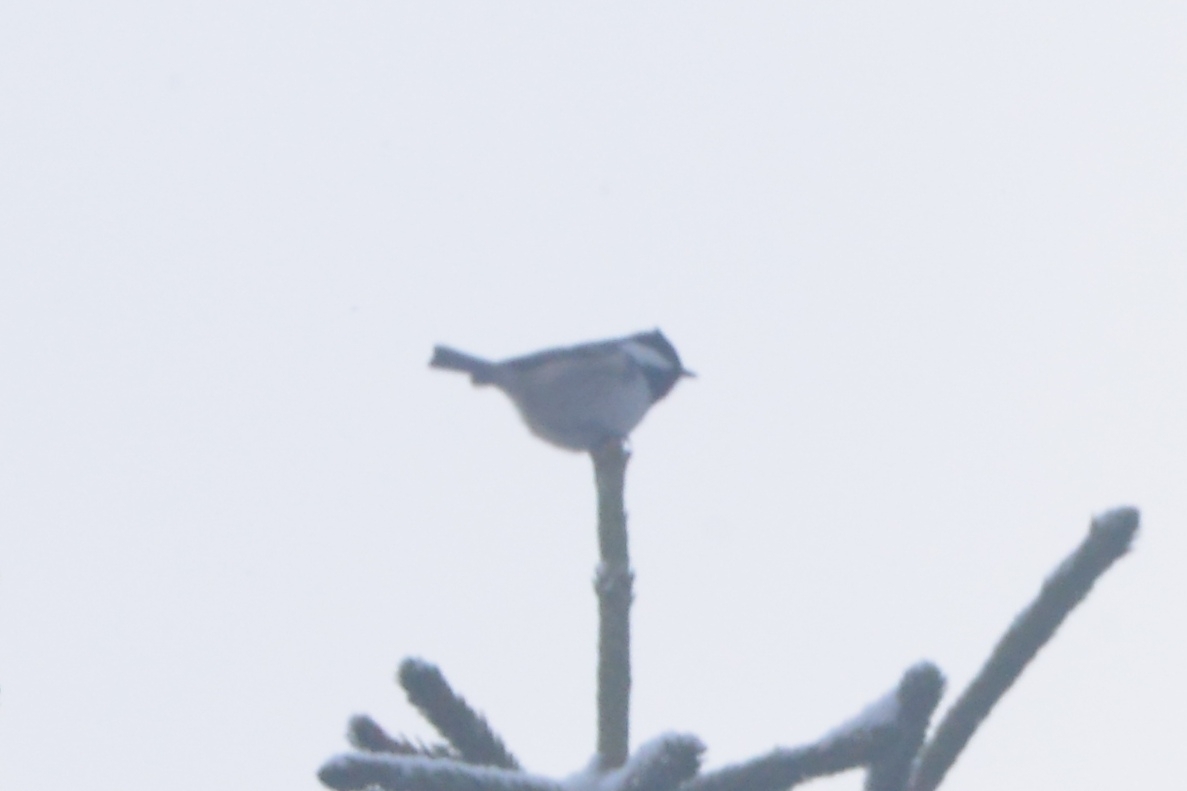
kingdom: Animalia
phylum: Chordata
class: Aves
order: Passeriformes
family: Paridae
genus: Periparus
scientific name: Periparus ater
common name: Coal tit
